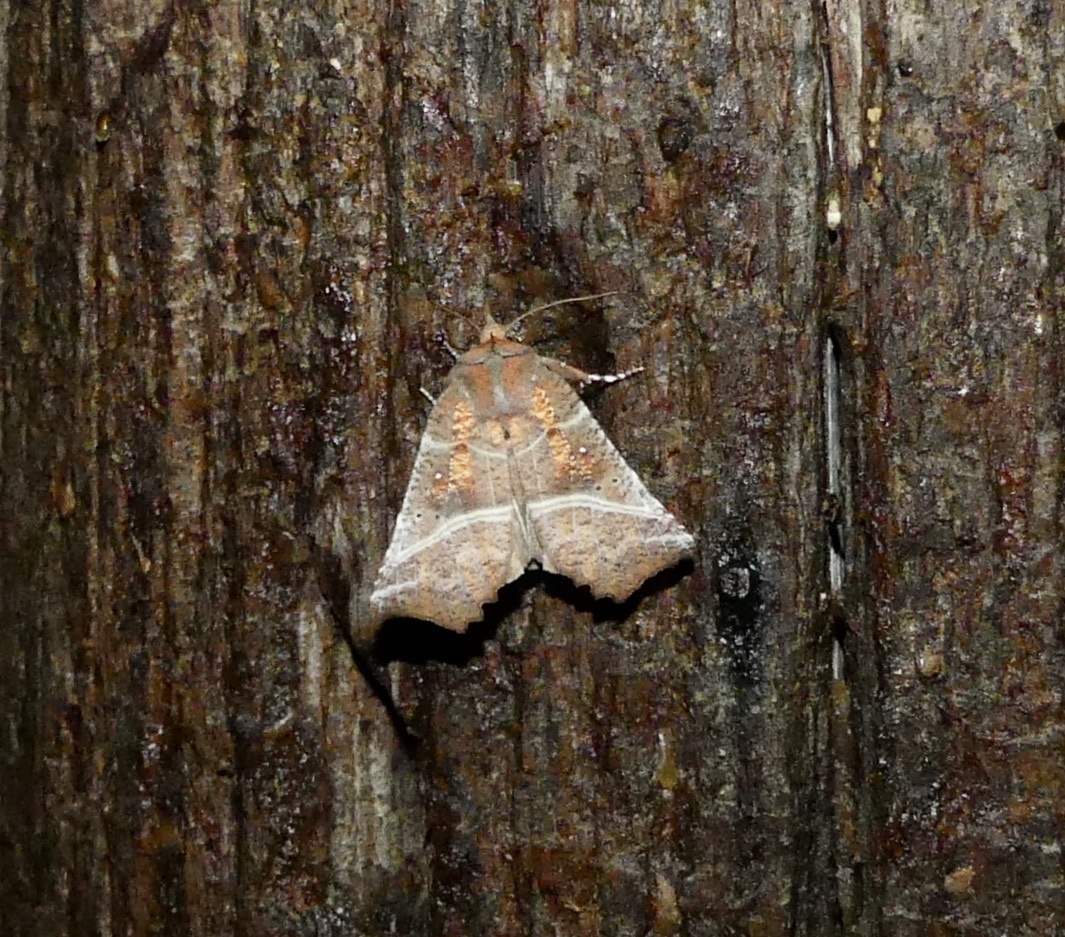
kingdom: Animalia
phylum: Arthropoda
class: Insecta
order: Lepidoptera
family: Erebidae
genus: Scoliopteryx
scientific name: Scoliopteryx libatrix
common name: Herald
